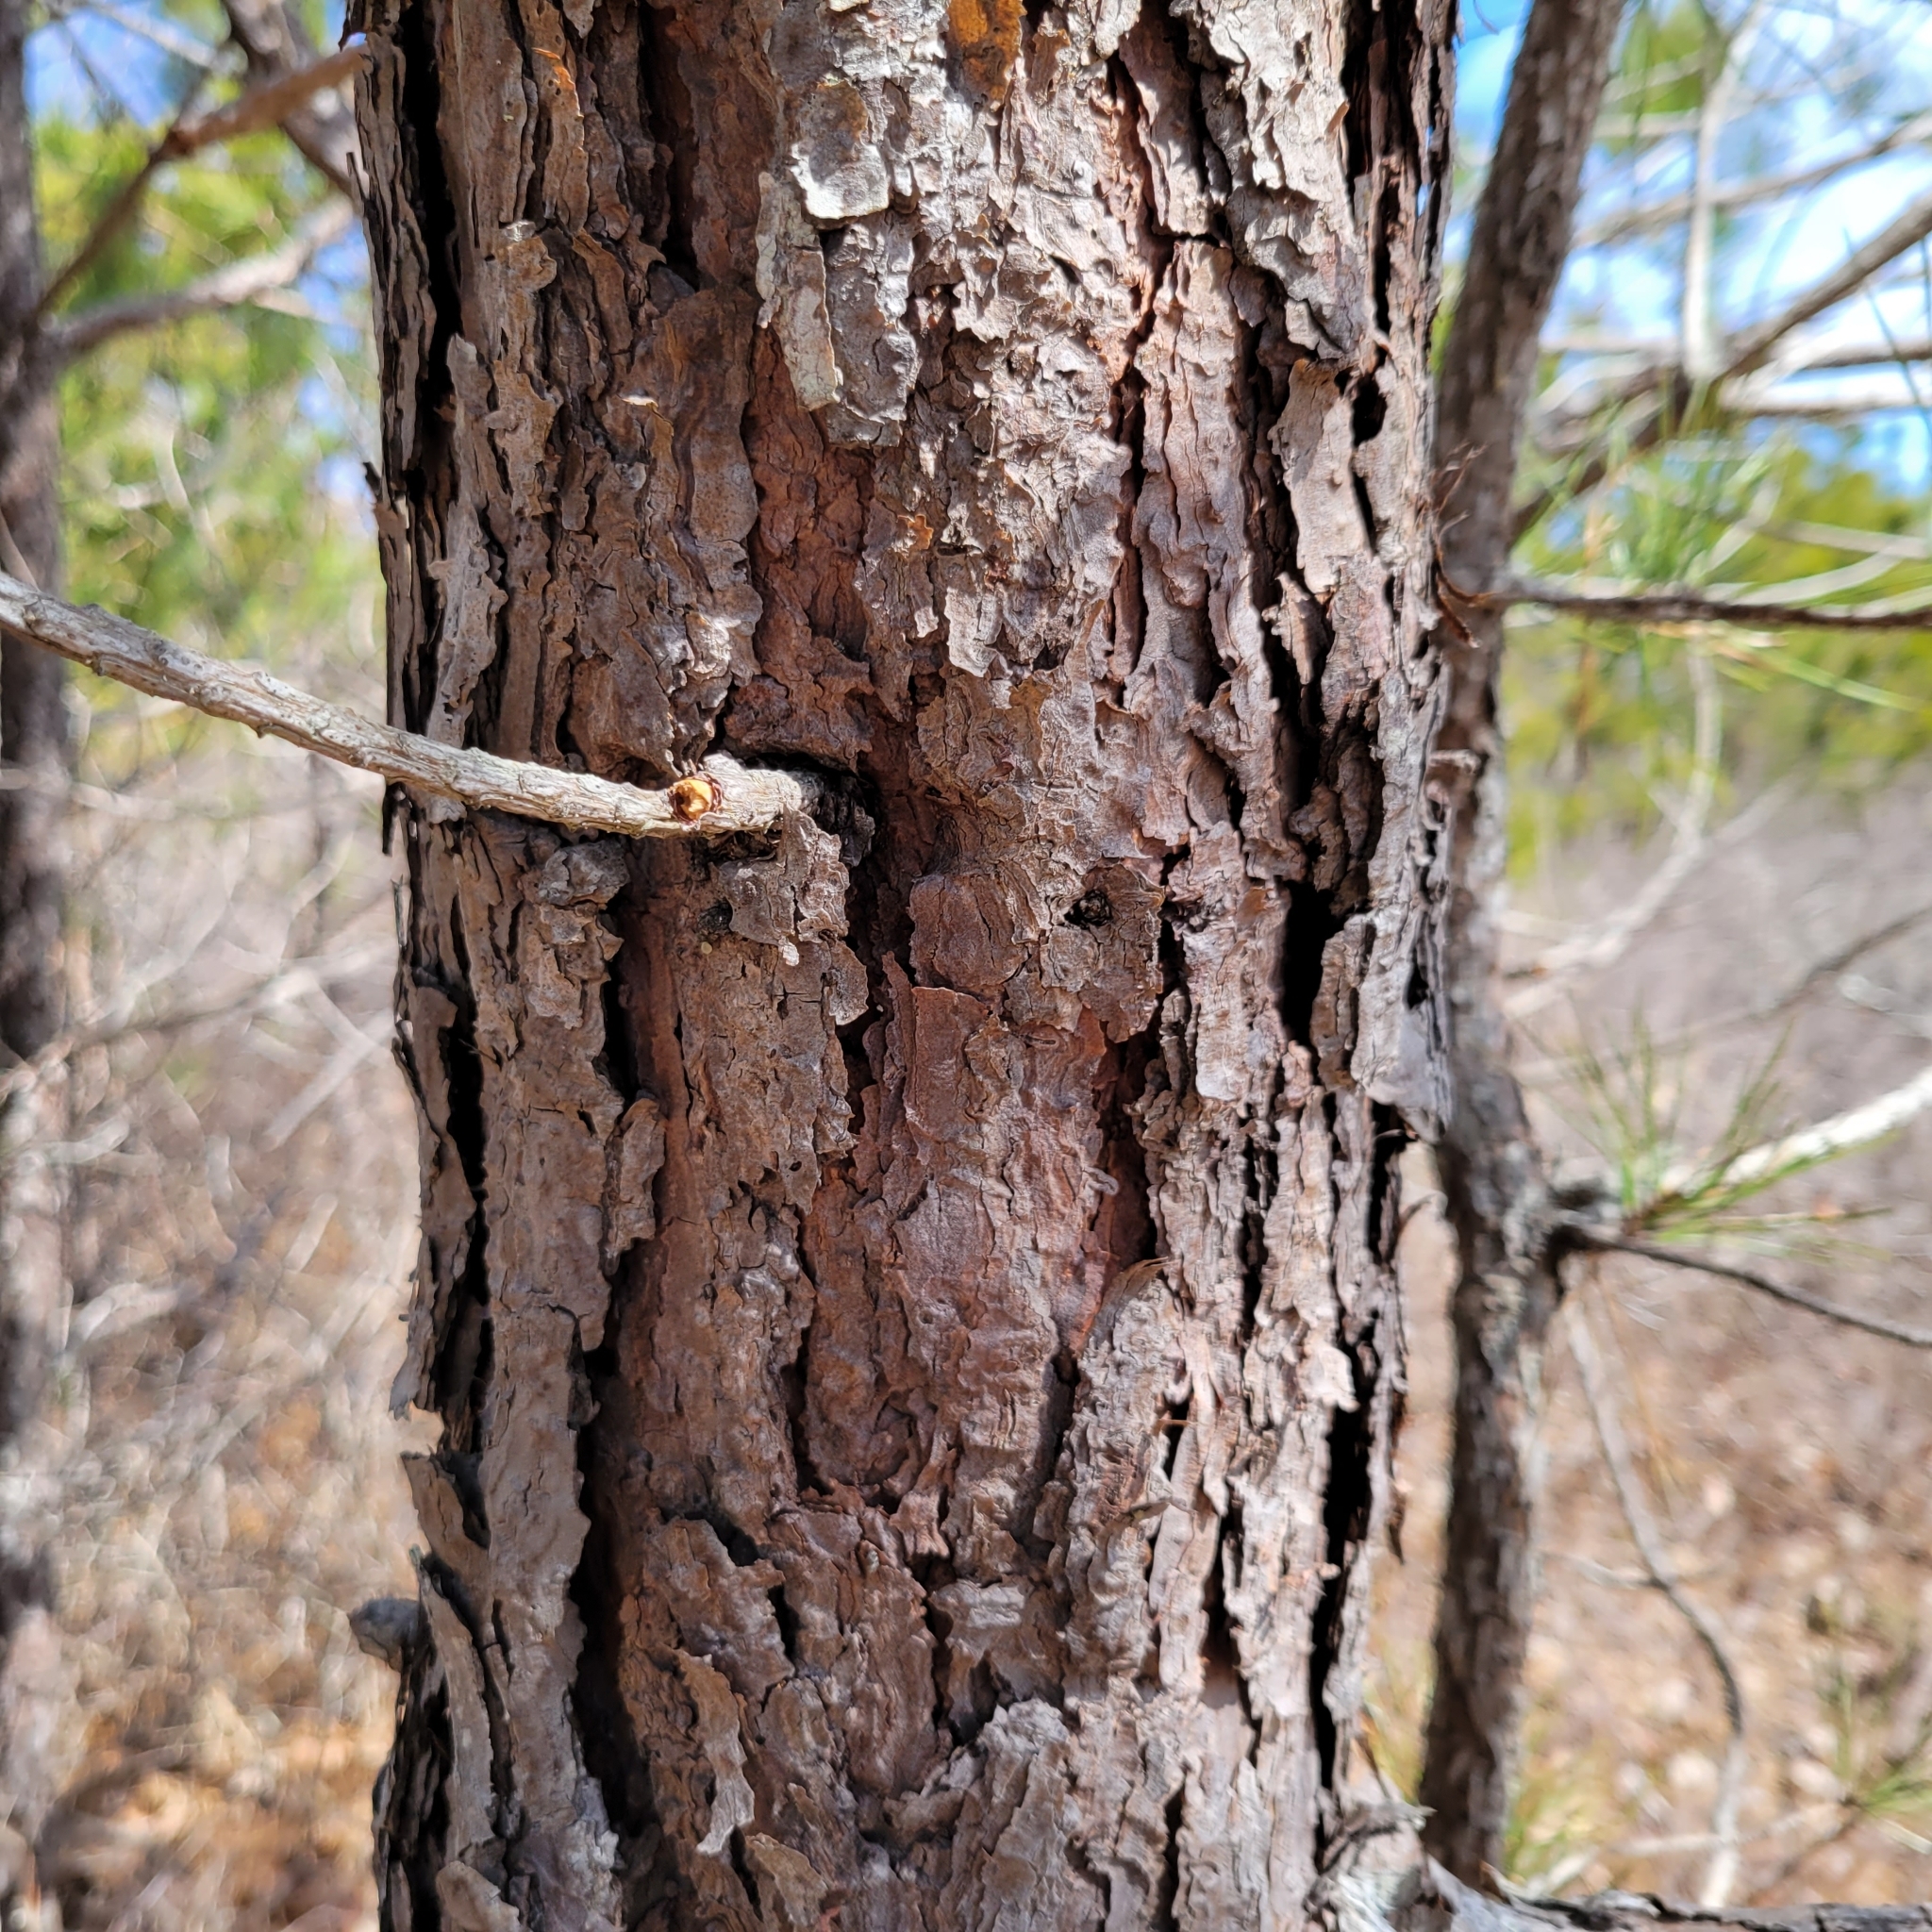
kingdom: Plantae
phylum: Tracheophyta
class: Pinopsida
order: Pinales
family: Pinaceae
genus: Pinus
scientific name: Pinus rigida
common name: Pitch pine
